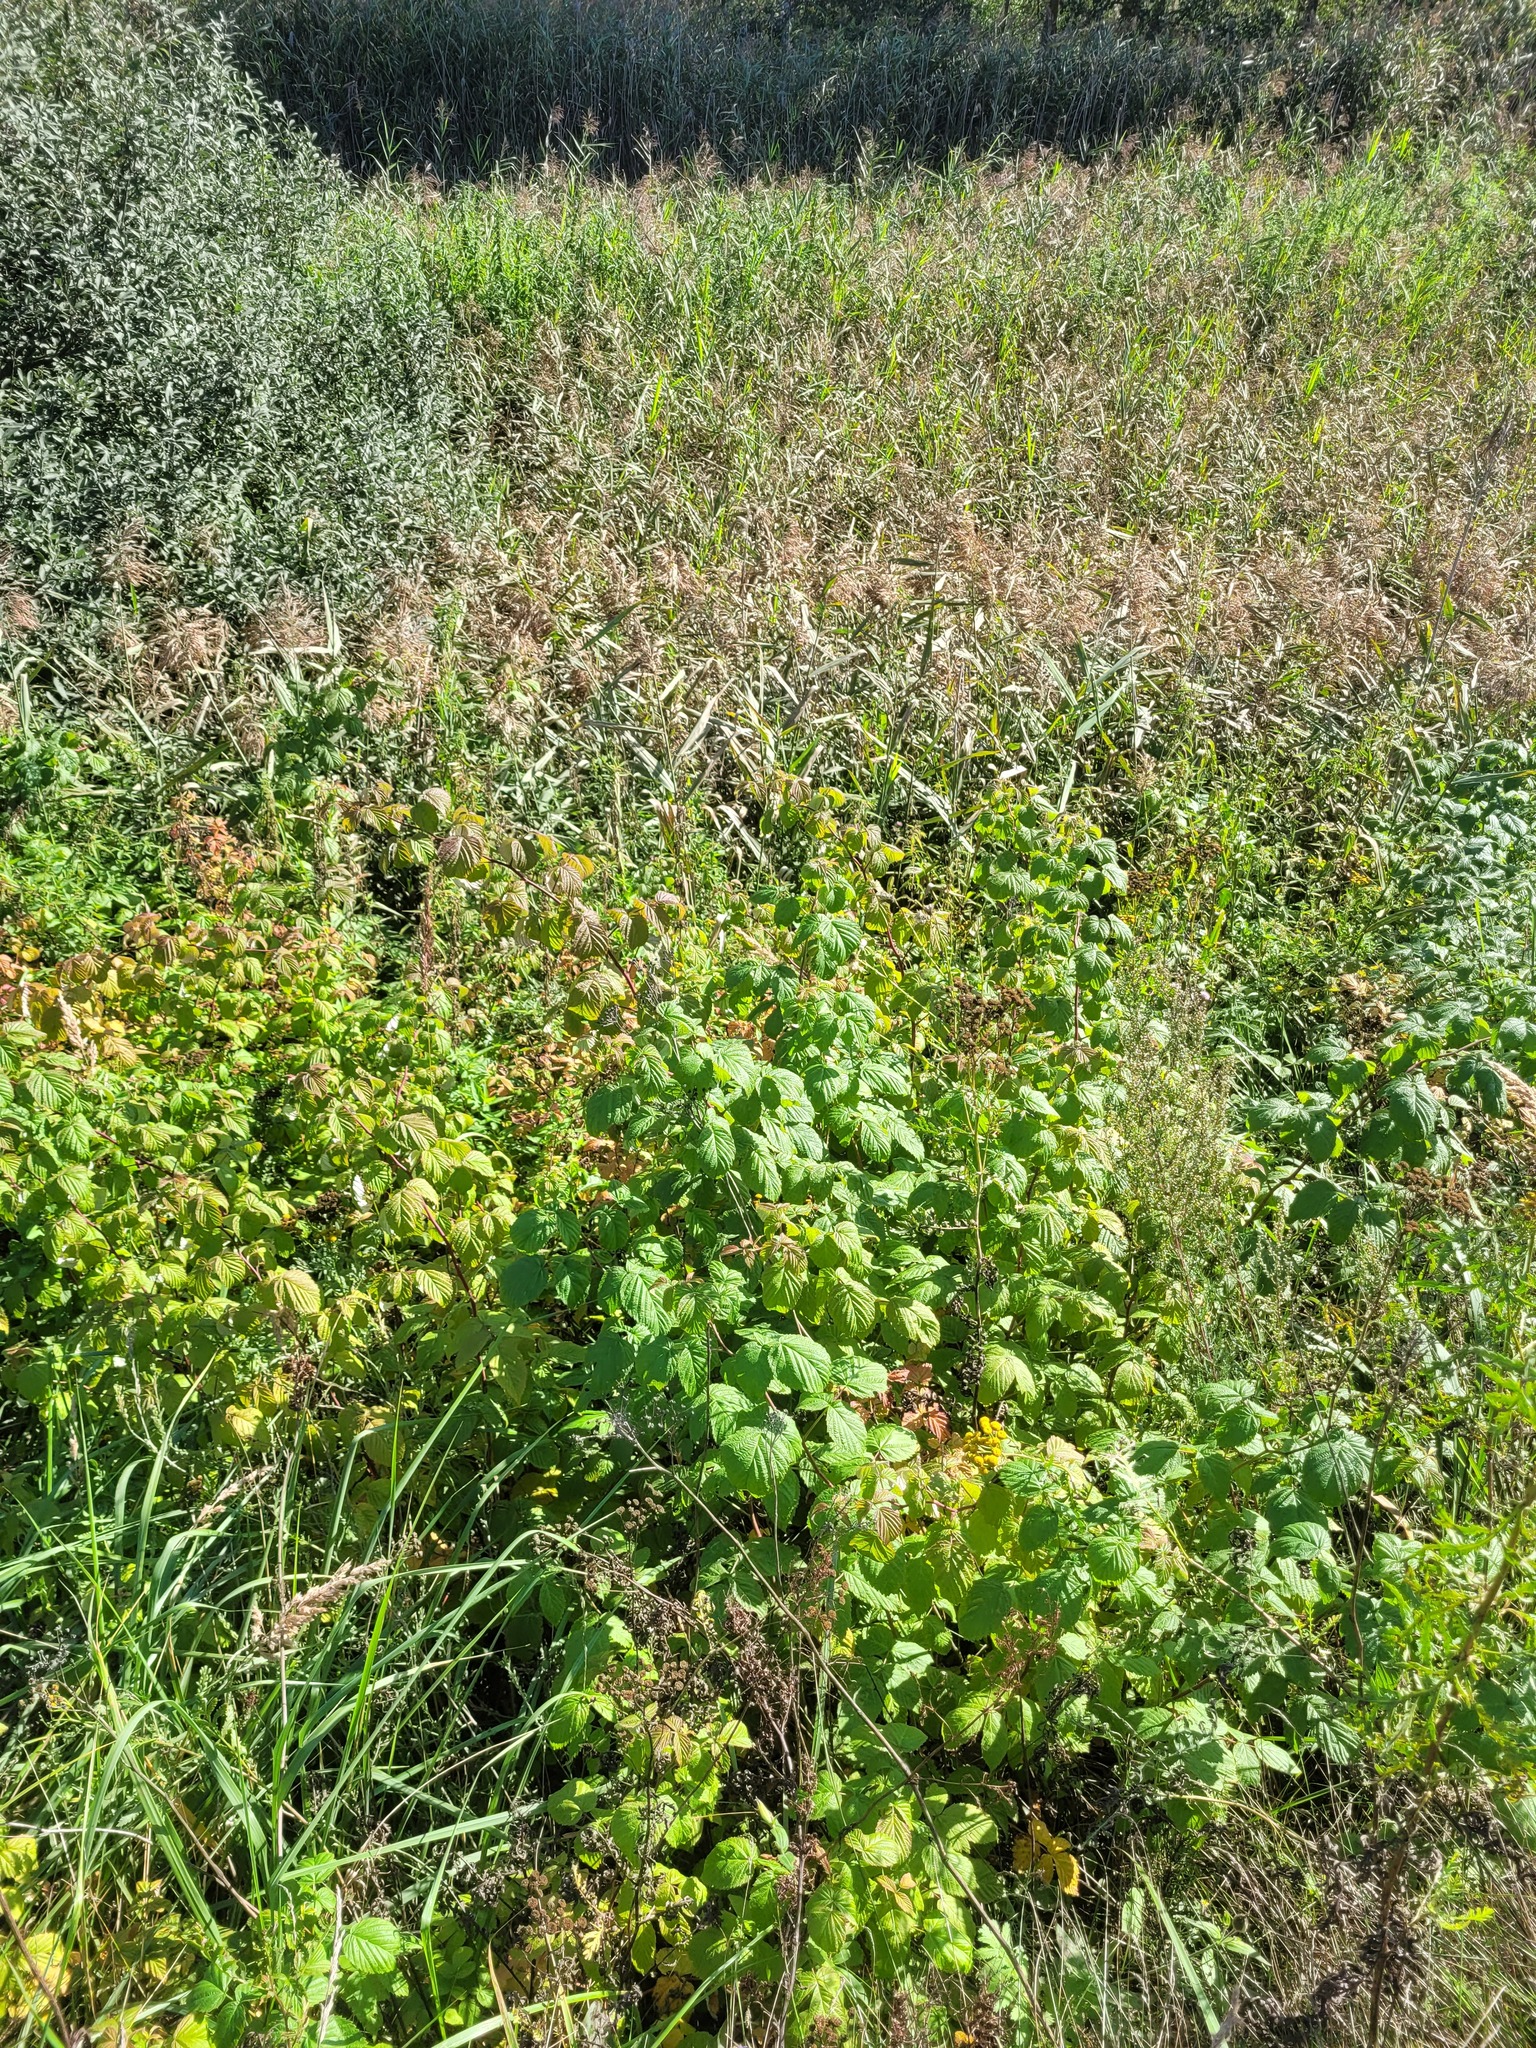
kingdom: Plantae
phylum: Tracheophyta
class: Magnoliopsida
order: Rosales
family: Rosaceae
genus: Rubus
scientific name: Rubus idaeus
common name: Raspberry
